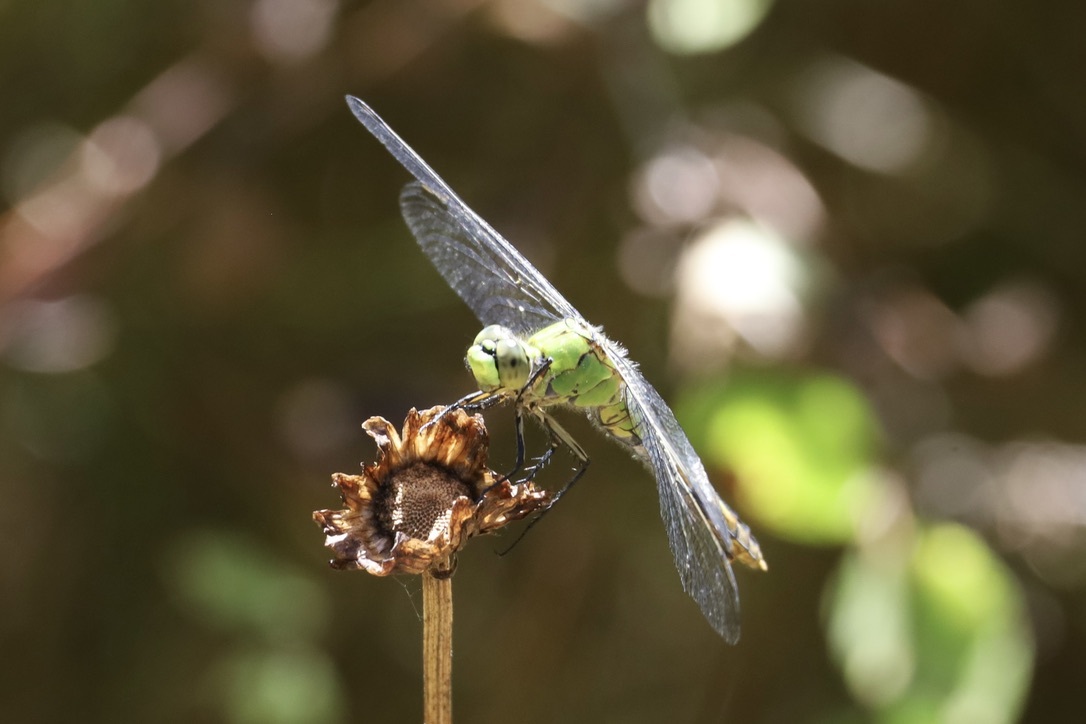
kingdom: Animalia
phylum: Arthropoda
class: Insecta
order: Odonata
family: Libellulidae
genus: Erythemis
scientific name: Erythemis collocata
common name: Western pondhawk
